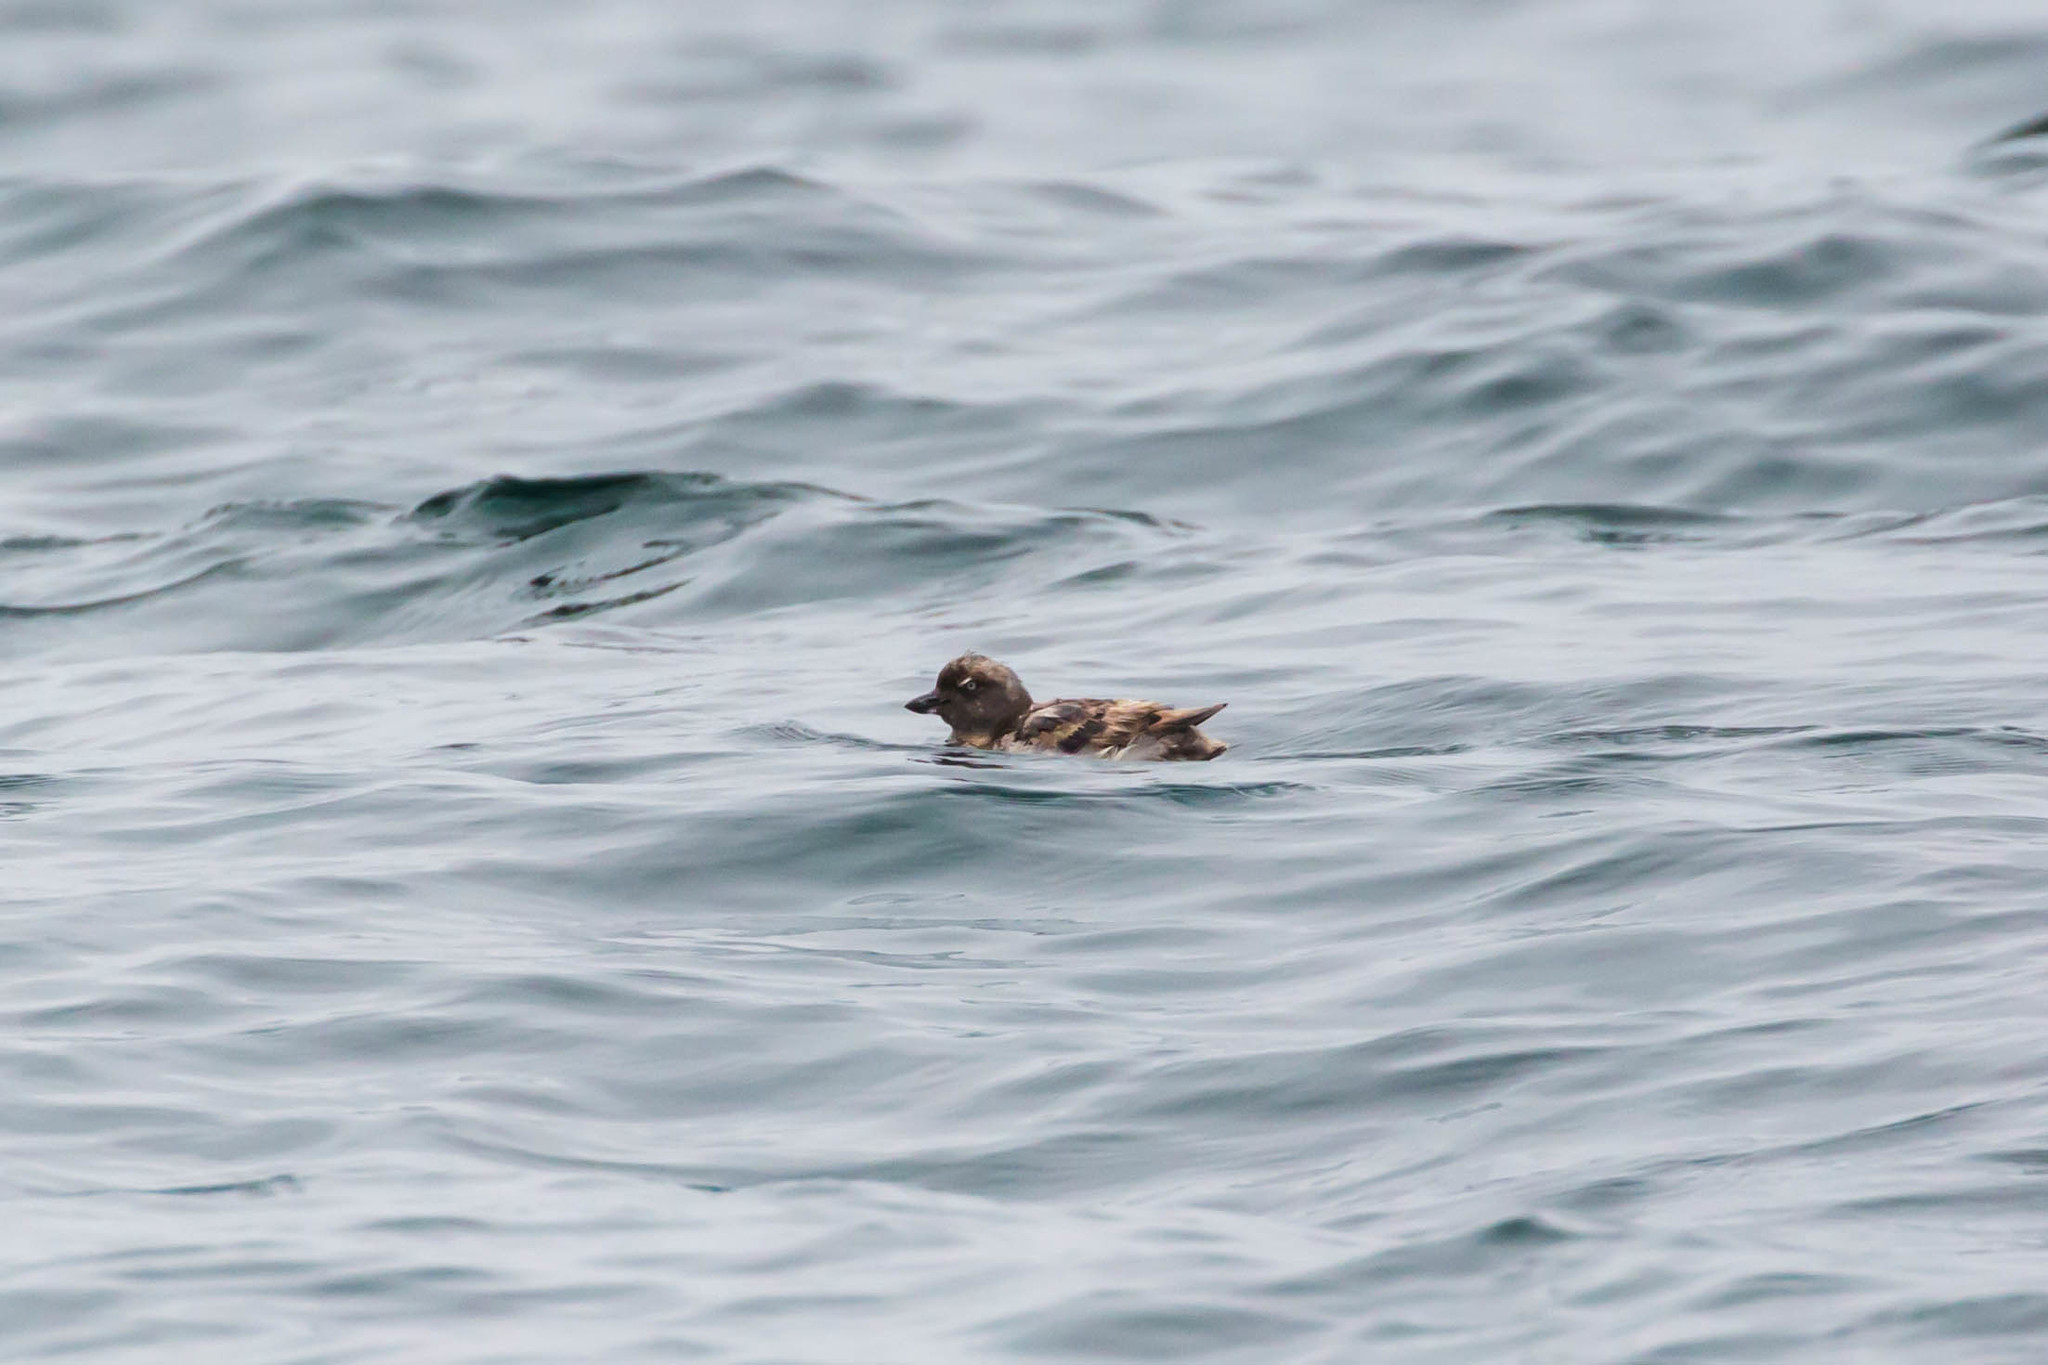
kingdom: Animalia
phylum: Chordata
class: Aves
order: Charadriiformes
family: Alcidae
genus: Ptychoramphus
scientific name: Ptychoramphus aleuticus
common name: Cassin's auklet
